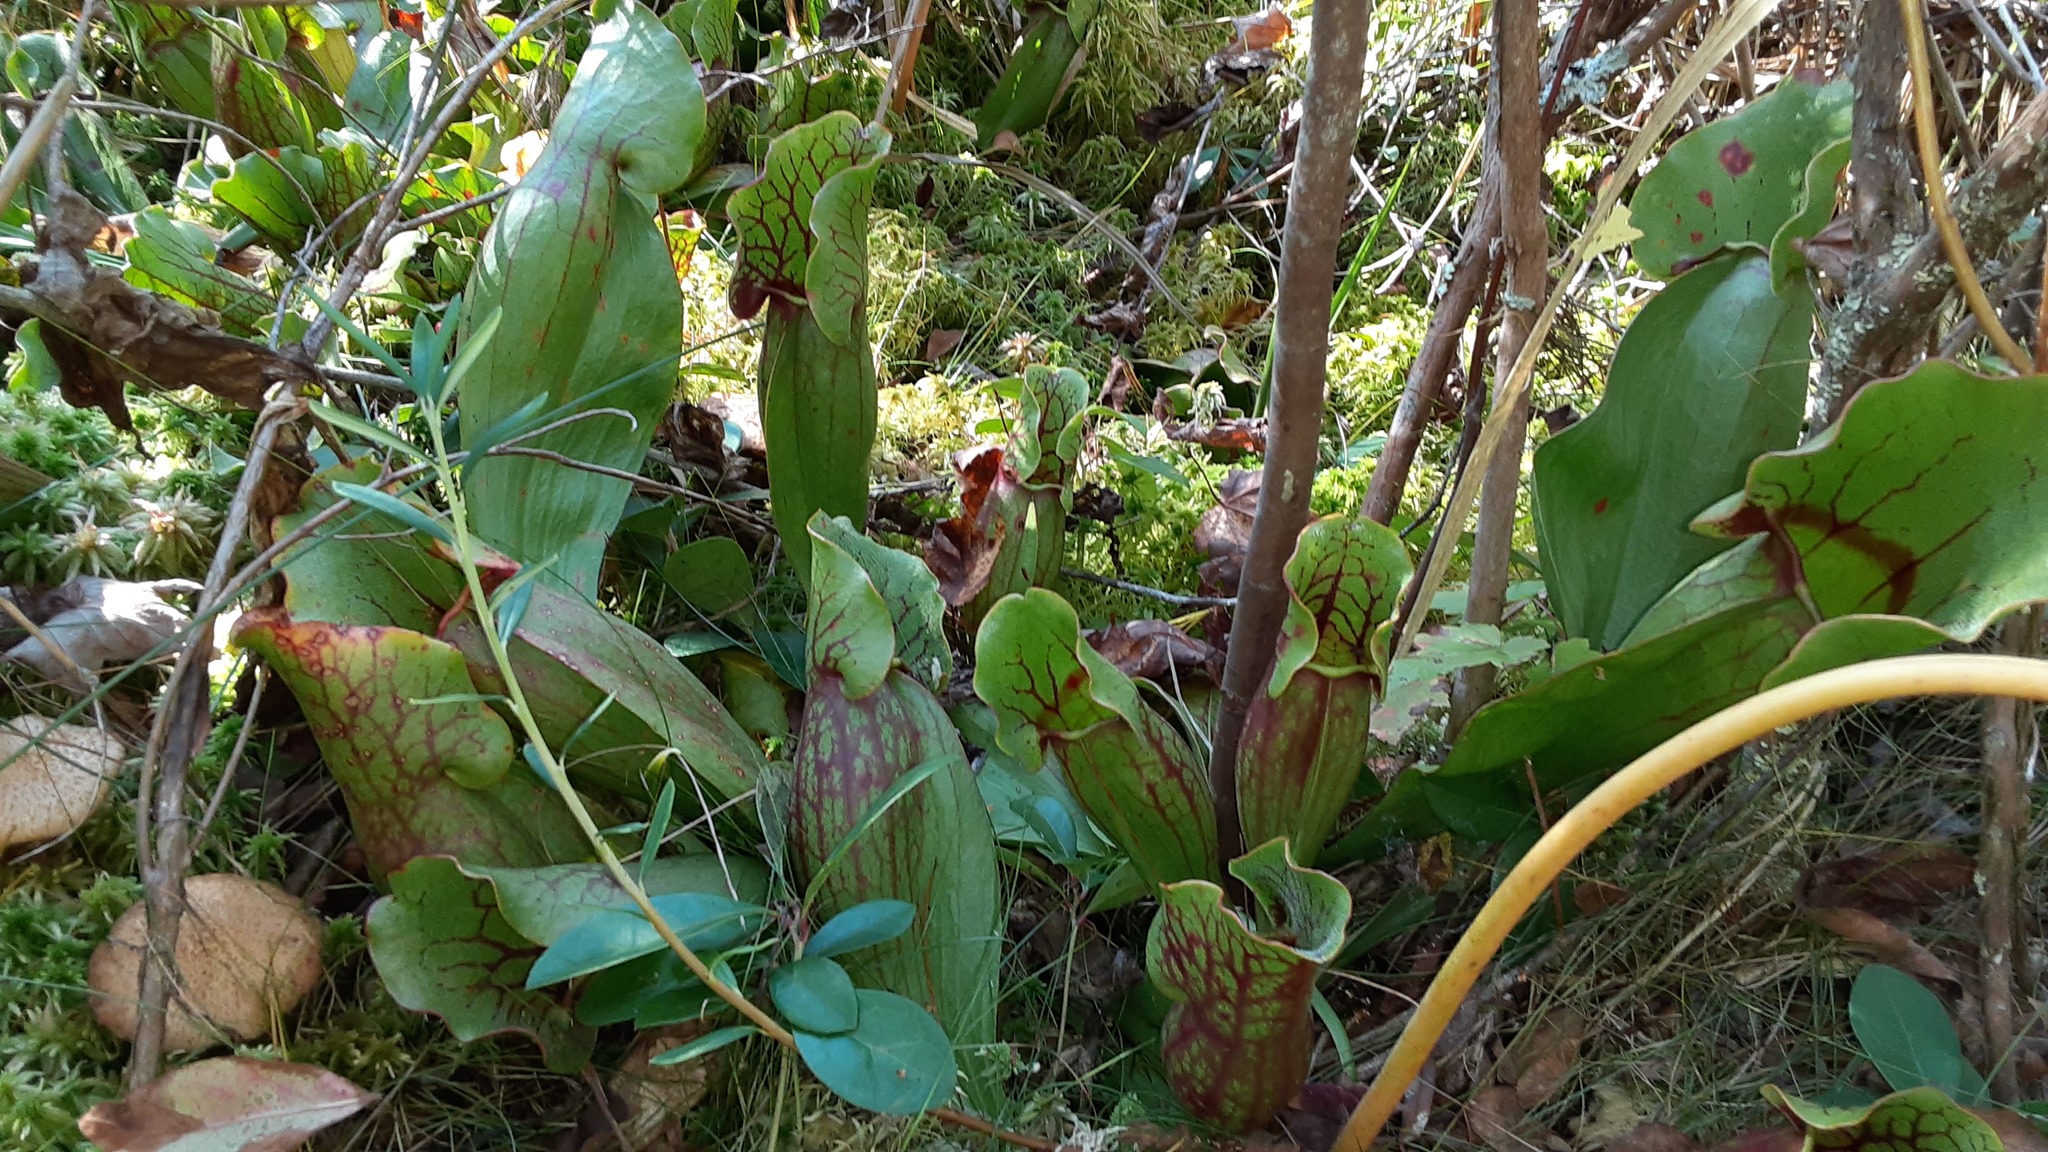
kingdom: Plantae
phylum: Tracheophyta
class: Magnoliopsida
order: Ericales
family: Sarraceniaceae
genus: Sarracenia
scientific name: Sarracenia purpurea
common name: Pitcherplant
